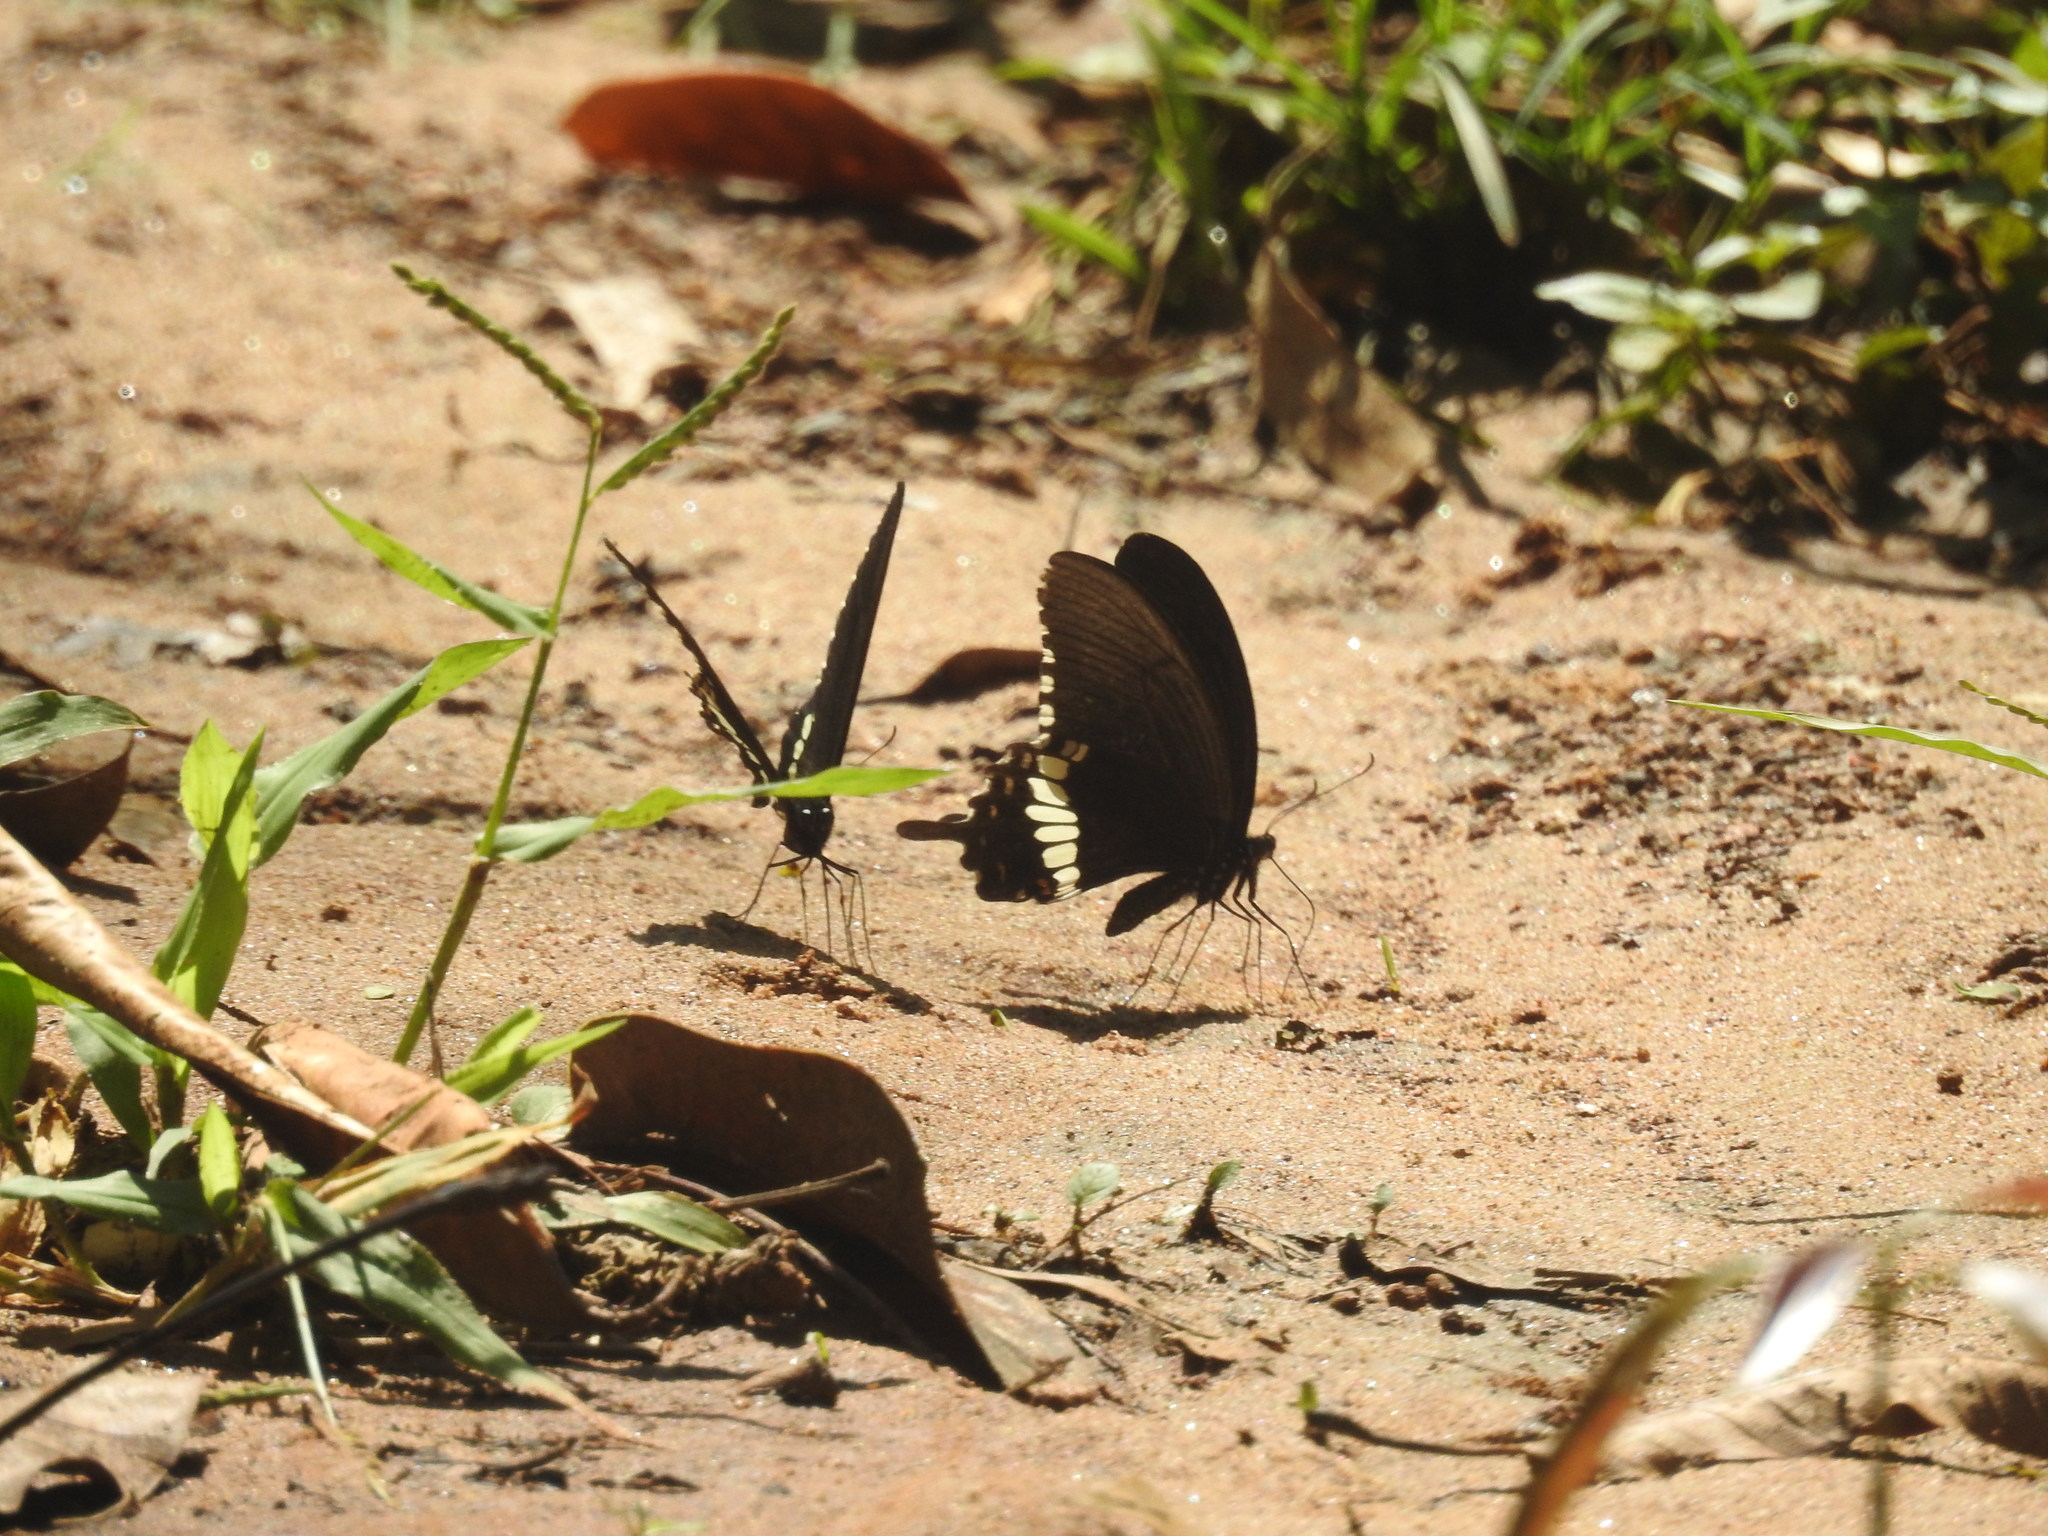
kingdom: Animalia
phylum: Arthropoda
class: Insecta
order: Lepidoptera
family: Papilionidae
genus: Papilio
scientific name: Papilio polytes
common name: Common mormon
